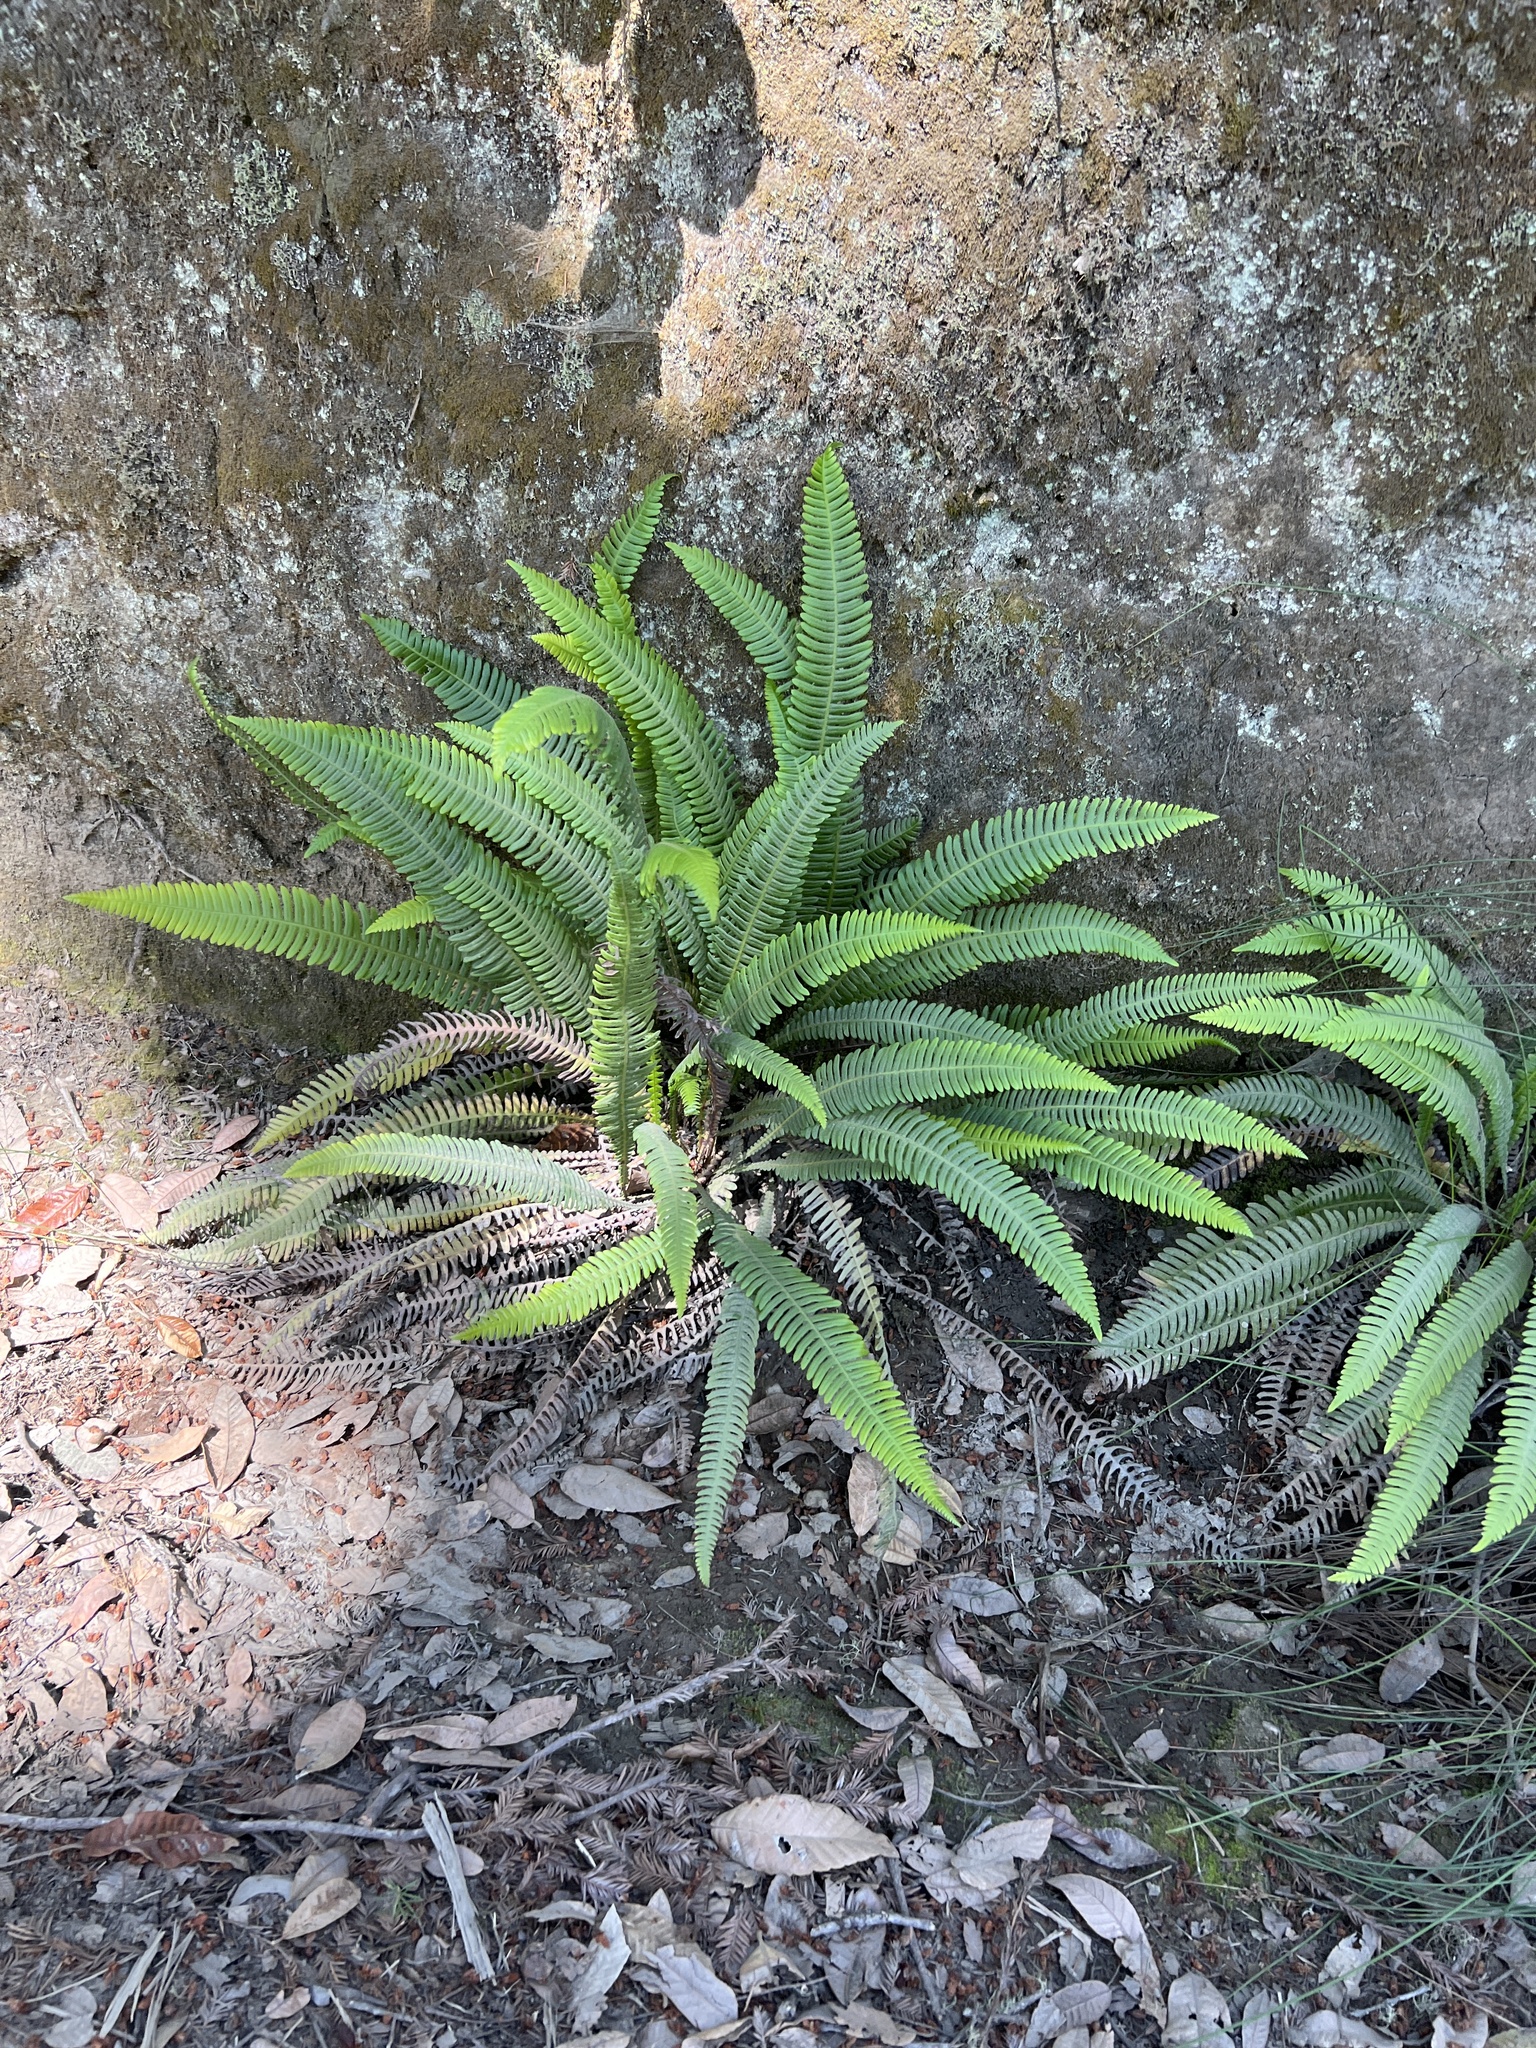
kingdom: Plantae
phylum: Tracheophyta
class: Polypodiopsida
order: Polypodiales
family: Blechnaceae
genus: Struthiopteris
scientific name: Struthiopteris spicant
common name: Deer fern
